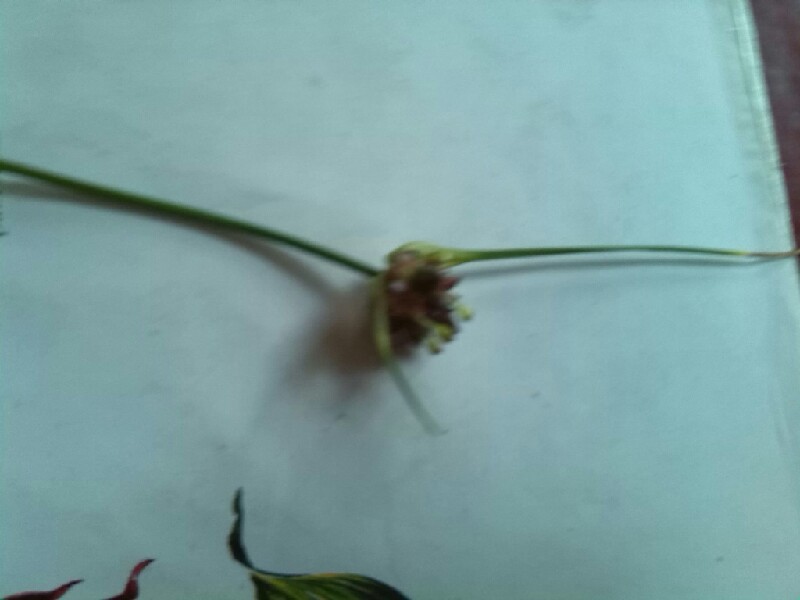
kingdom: Plantae
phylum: Tracheophyta
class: Liliopsida
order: Asparagales
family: Amaryllidaceae
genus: Allium
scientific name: Allium oleraceum
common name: Field garlic
